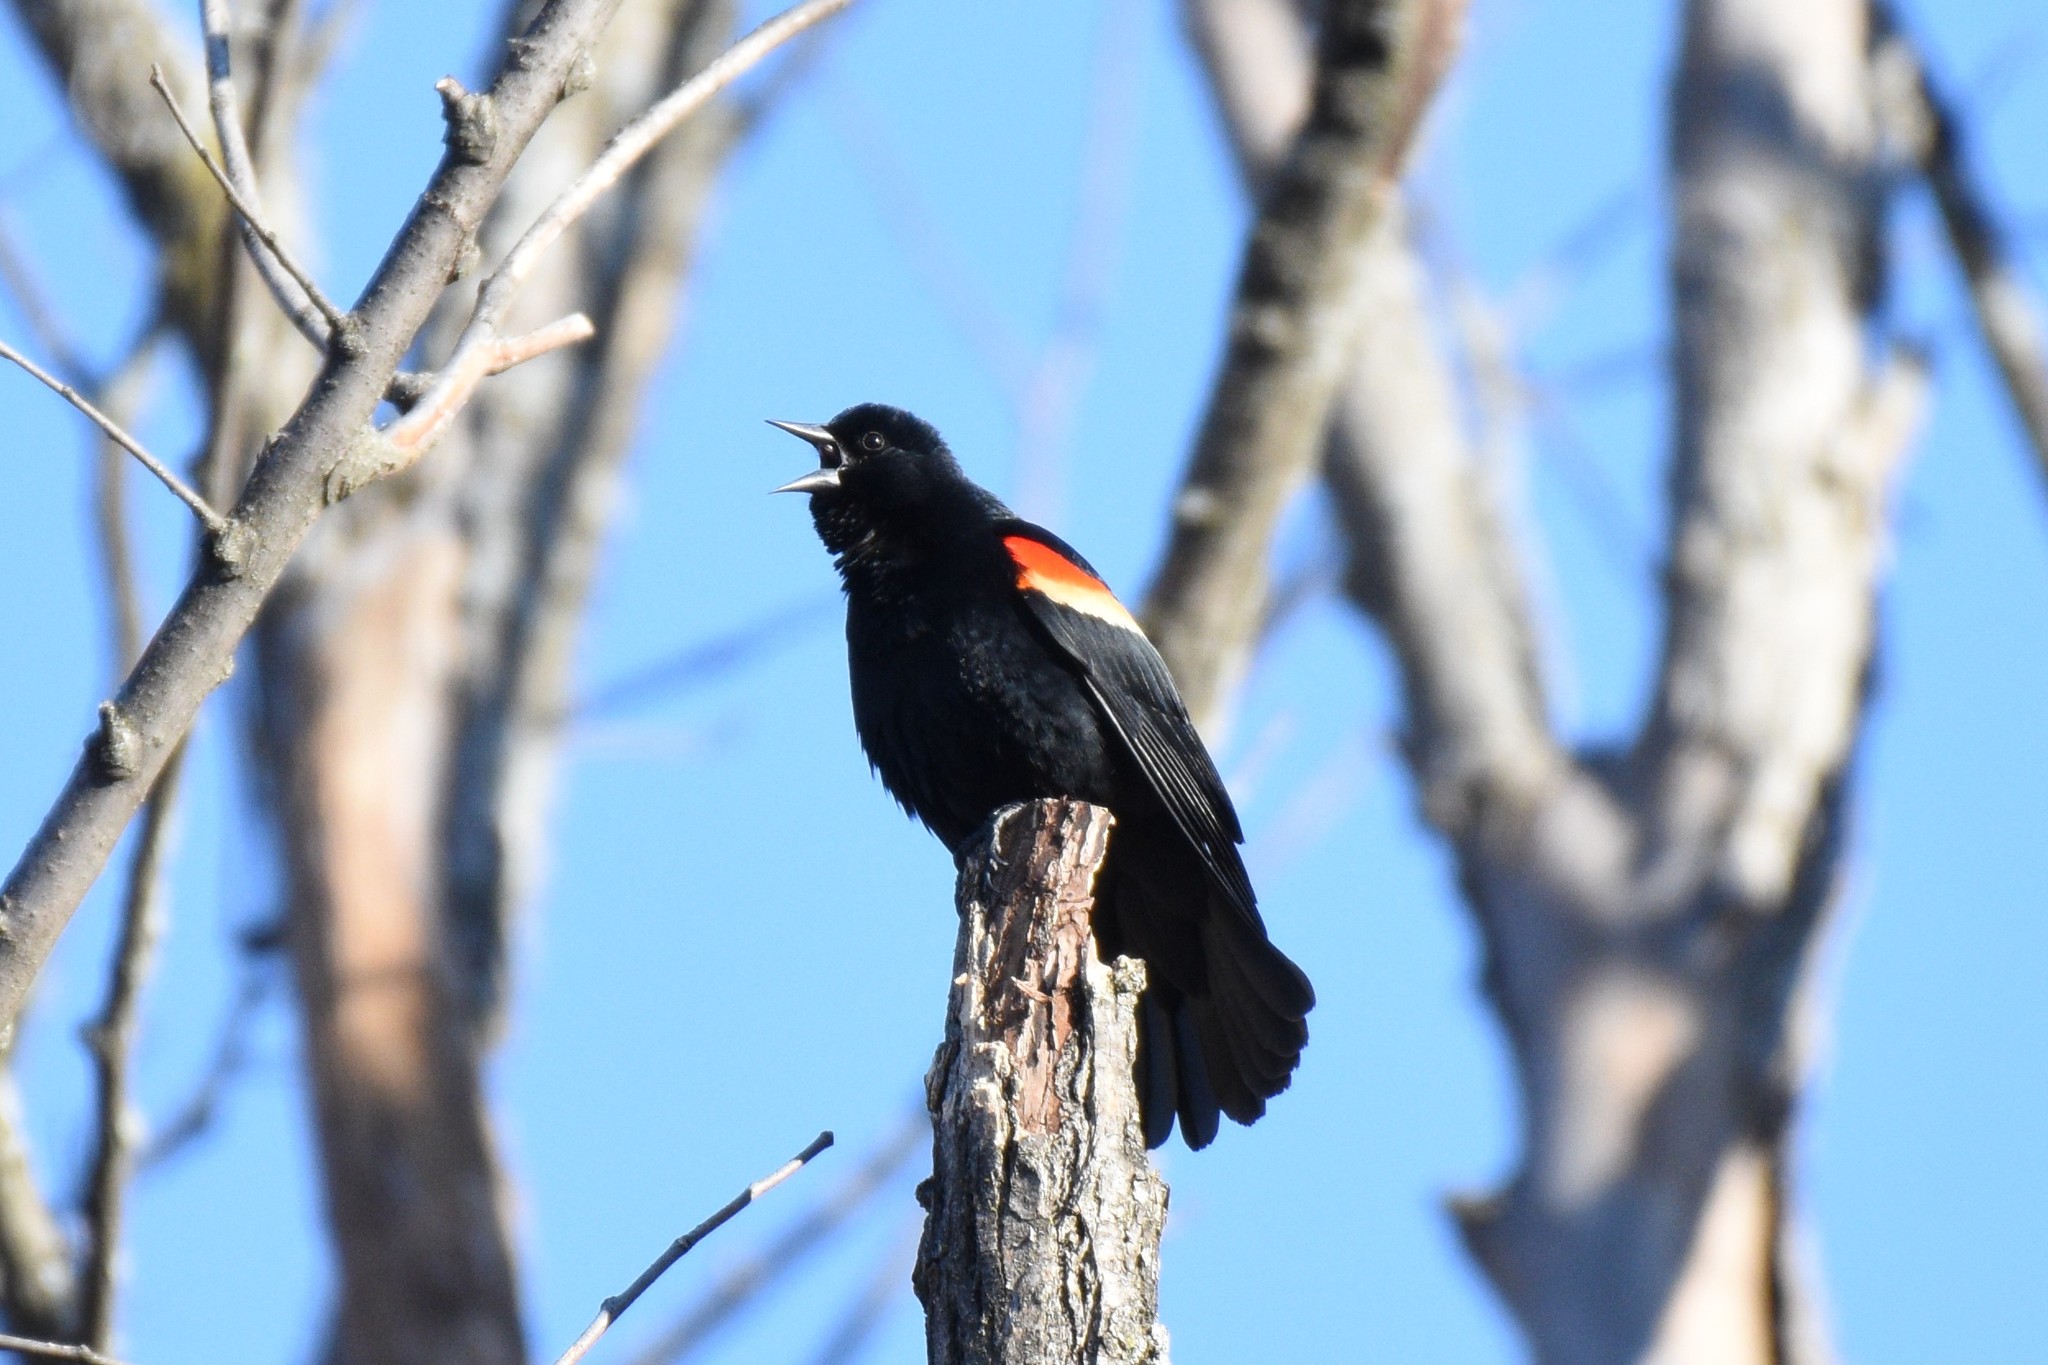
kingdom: Animalia
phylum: Chordata
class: Aves
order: Passeriformes
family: Icteridae
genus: Agelaius
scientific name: Agelaius phoeniceus
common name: Red-winged blackbird
